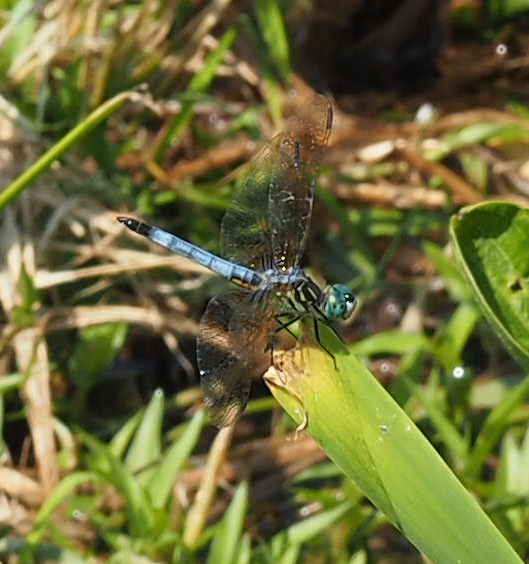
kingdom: Animalia
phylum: Arthropoda
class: Insecta
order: Odonata
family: Libellulidae
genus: Pachydiplax
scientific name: Pachydiplax longipennis
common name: Blue dasher
